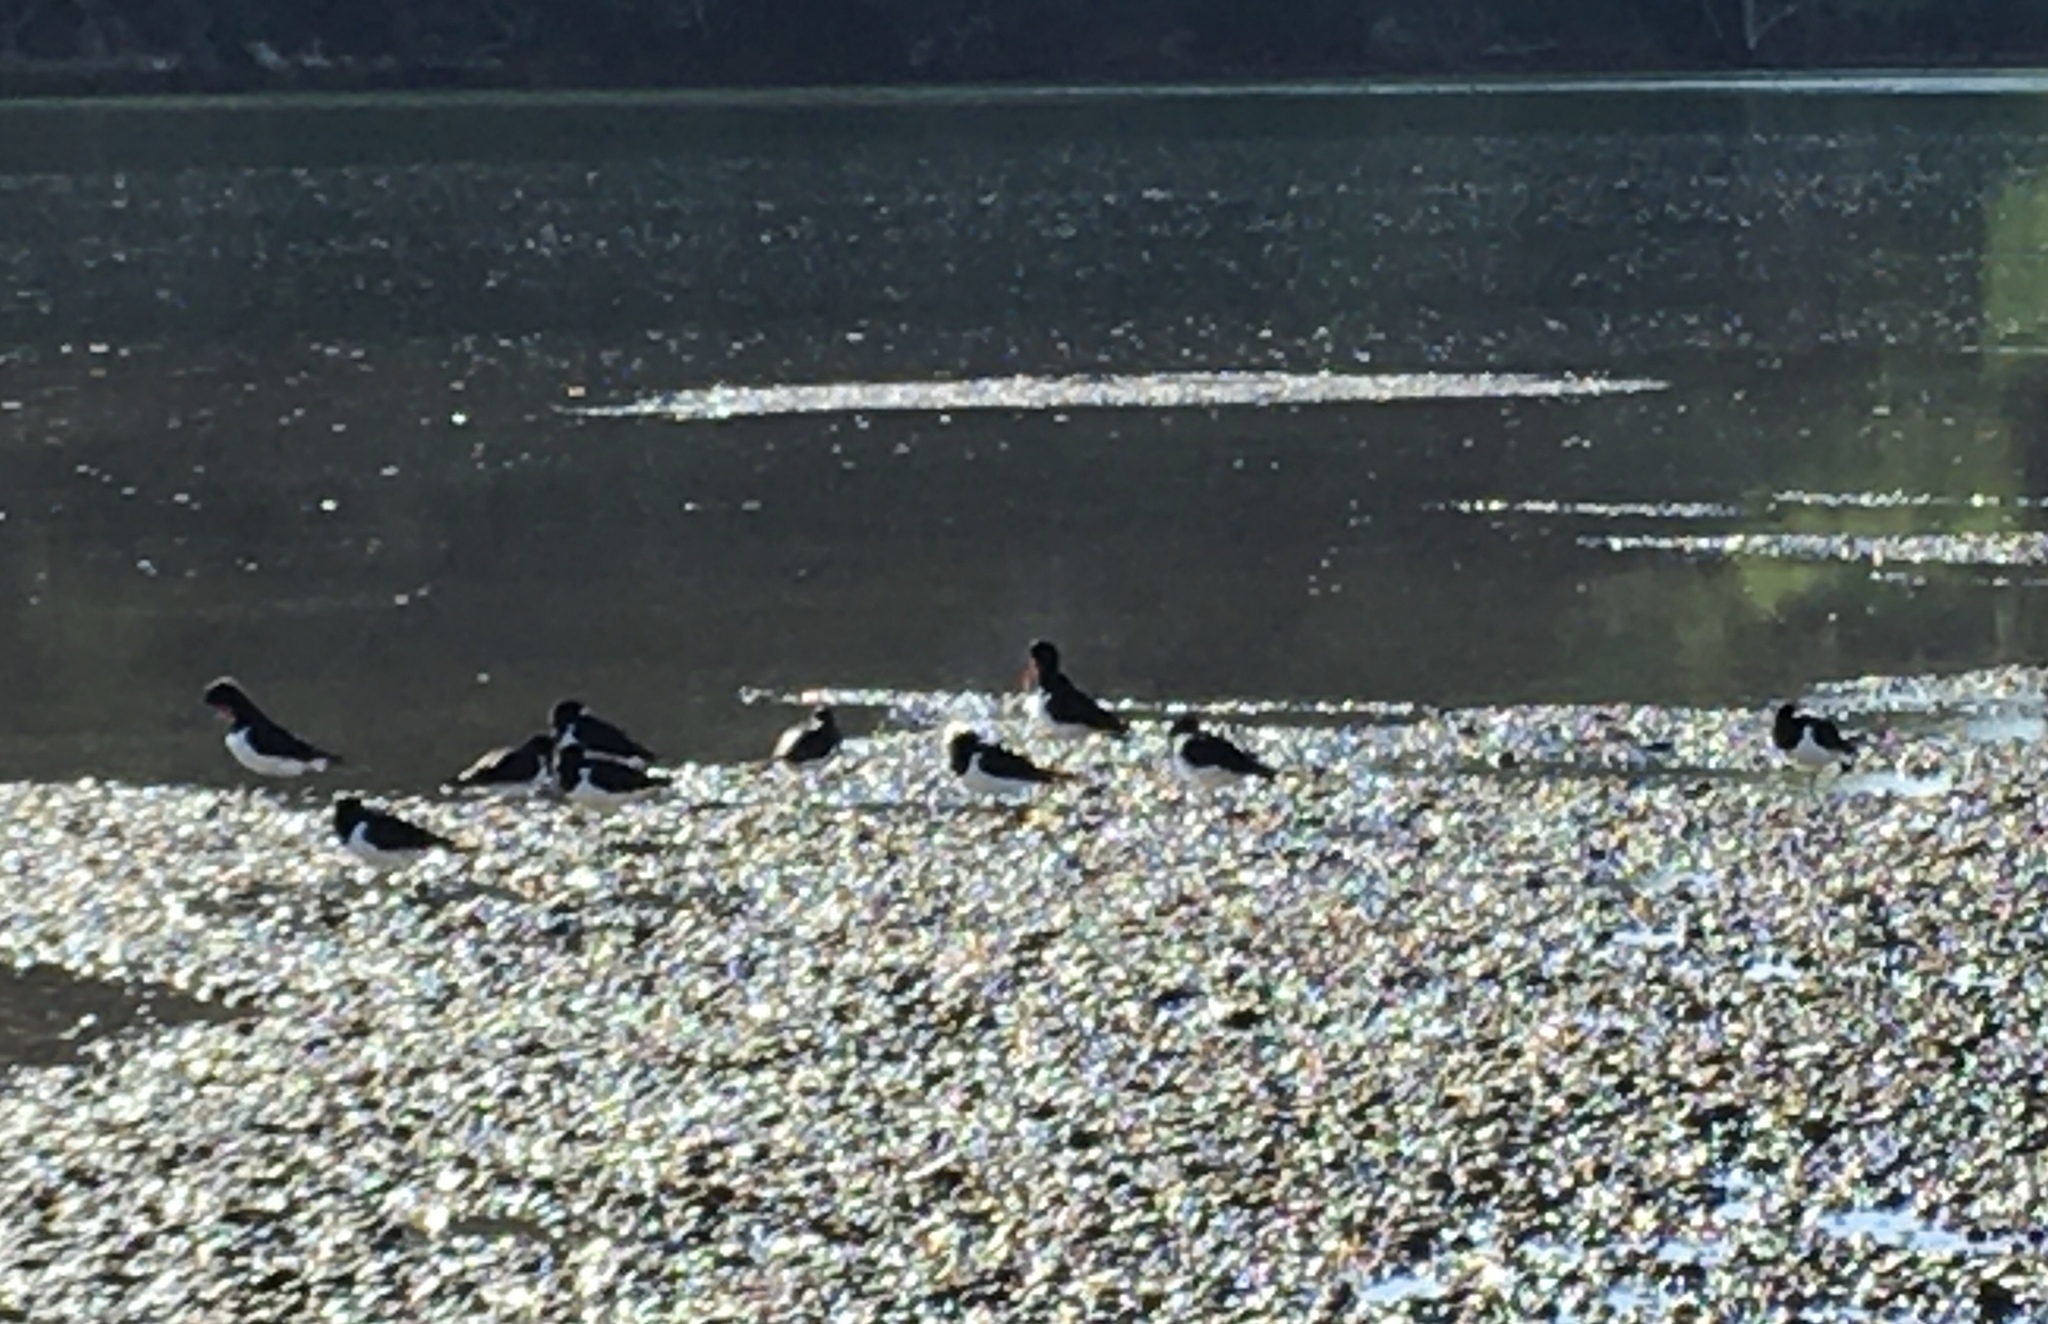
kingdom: Animalia
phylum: Chordata
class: Aves
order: Charadriiformes
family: Haematopodidae
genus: Haematopus
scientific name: Haematopus finschi
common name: South island oystercatcher
